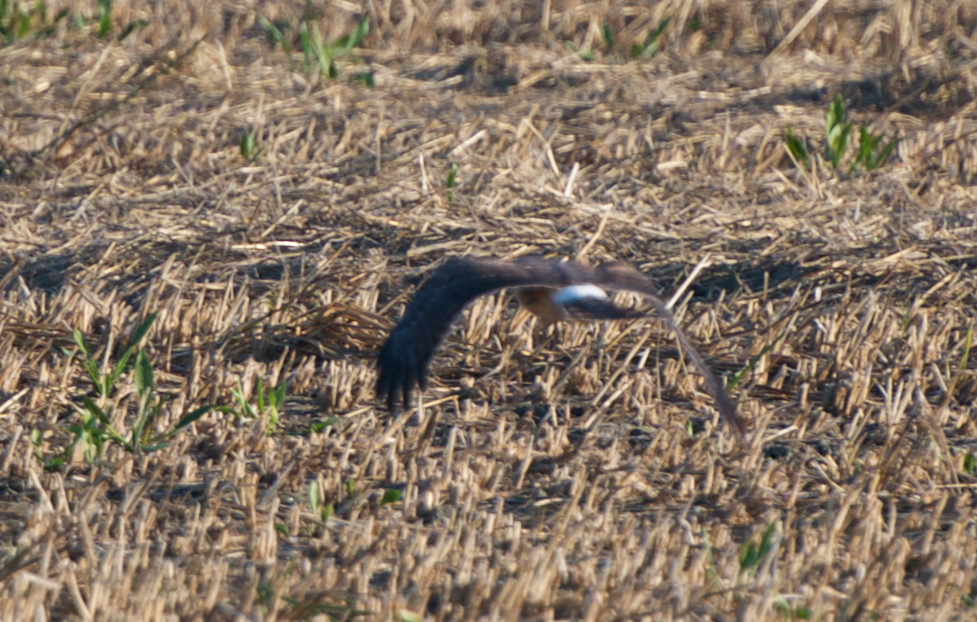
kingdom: Animalia
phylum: Chordata
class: Aves
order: Accipitriformes
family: Accipitridae
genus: Circus
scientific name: Circus cyaneus
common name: Hen harrier
